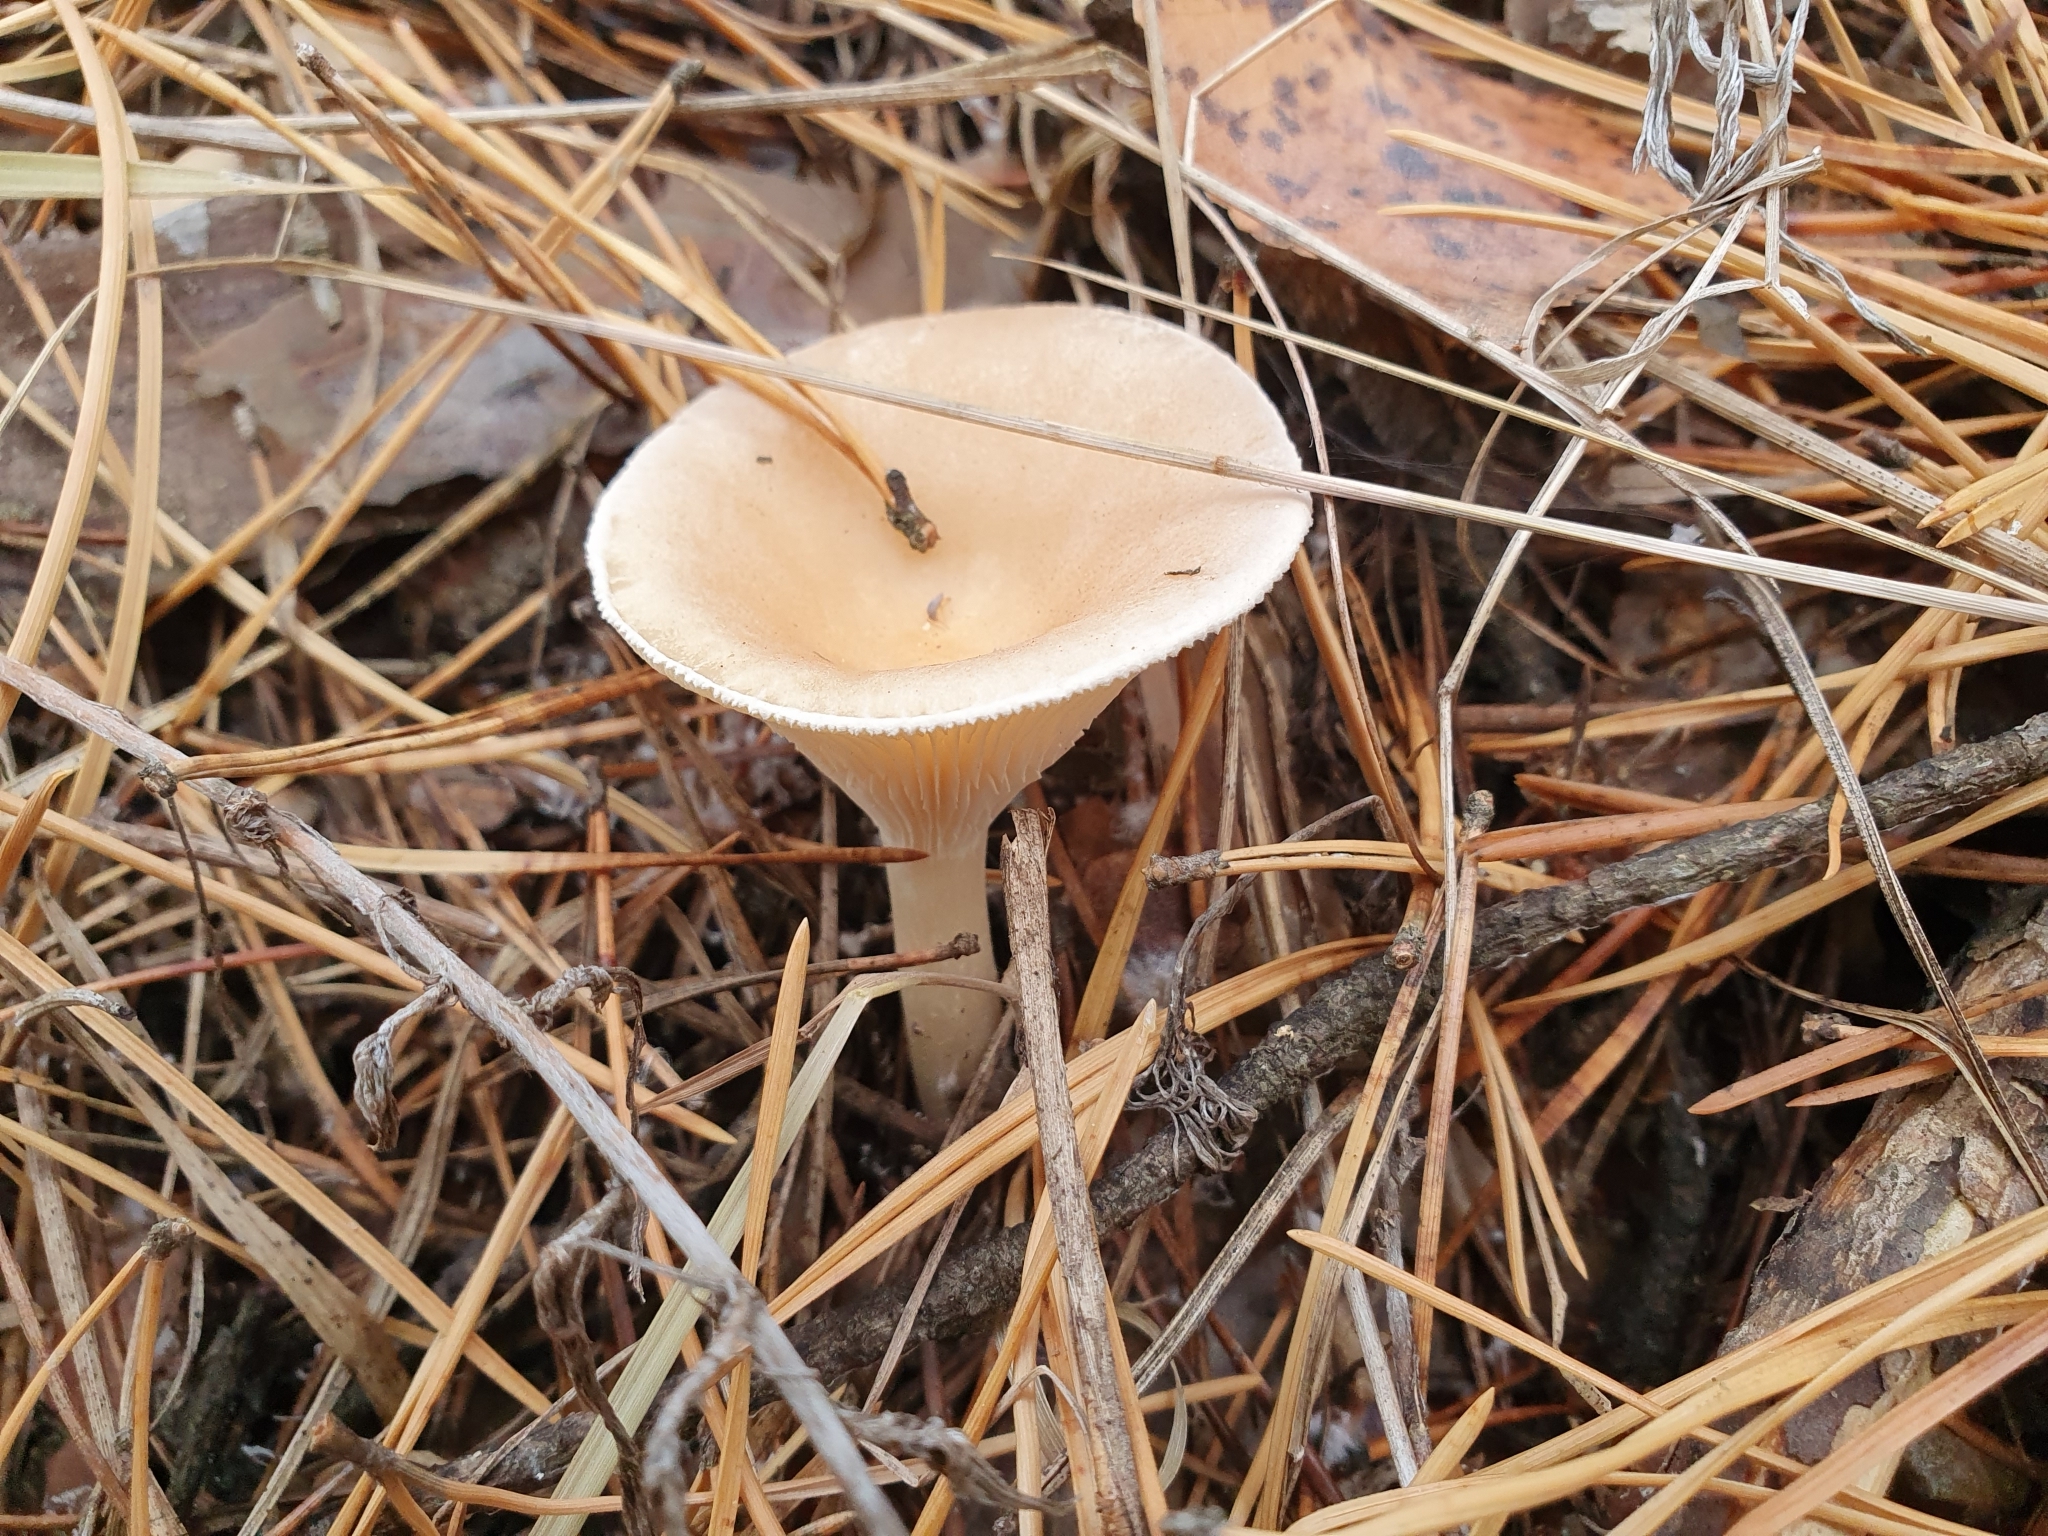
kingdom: Fungi
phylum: Basidiomycota
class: Agaricomycetes
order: Agaricales
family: Tricholomataceae
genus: Infundibulicybe
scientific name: Infundibulicybe gibba
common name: Common funnel
